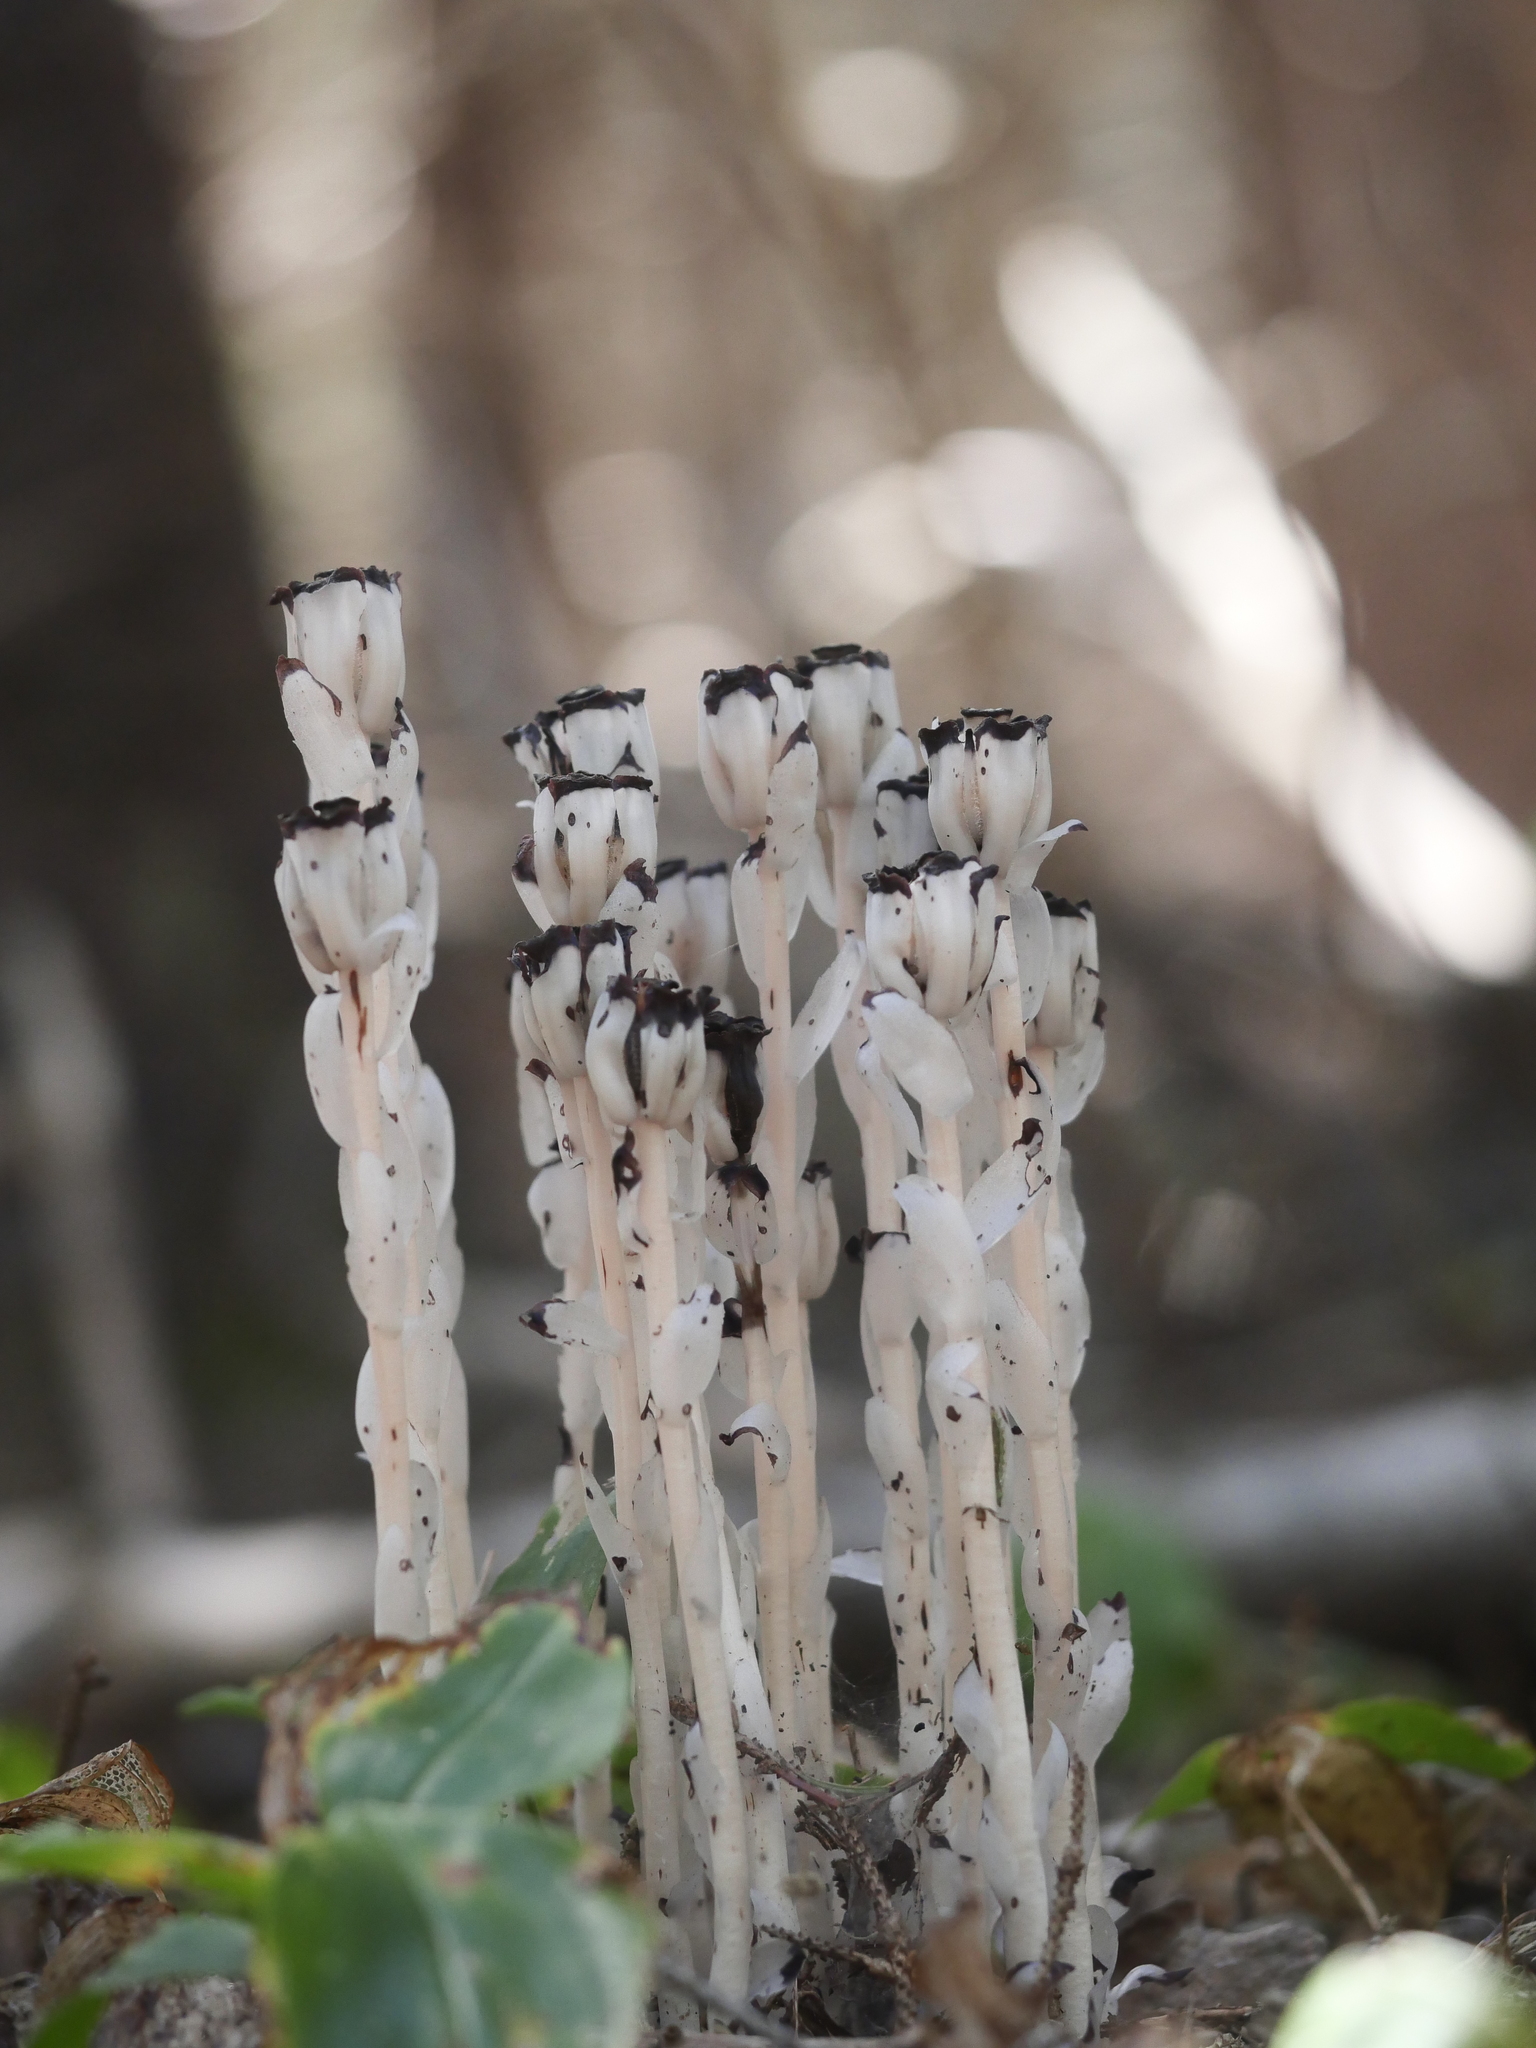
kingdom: Plantae
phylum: Tracheophyta
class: Magnoliopsida
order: Ericales
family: Ericaceae
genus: Monotropa
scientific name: Monotropa uniflora
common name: Convulsion root
